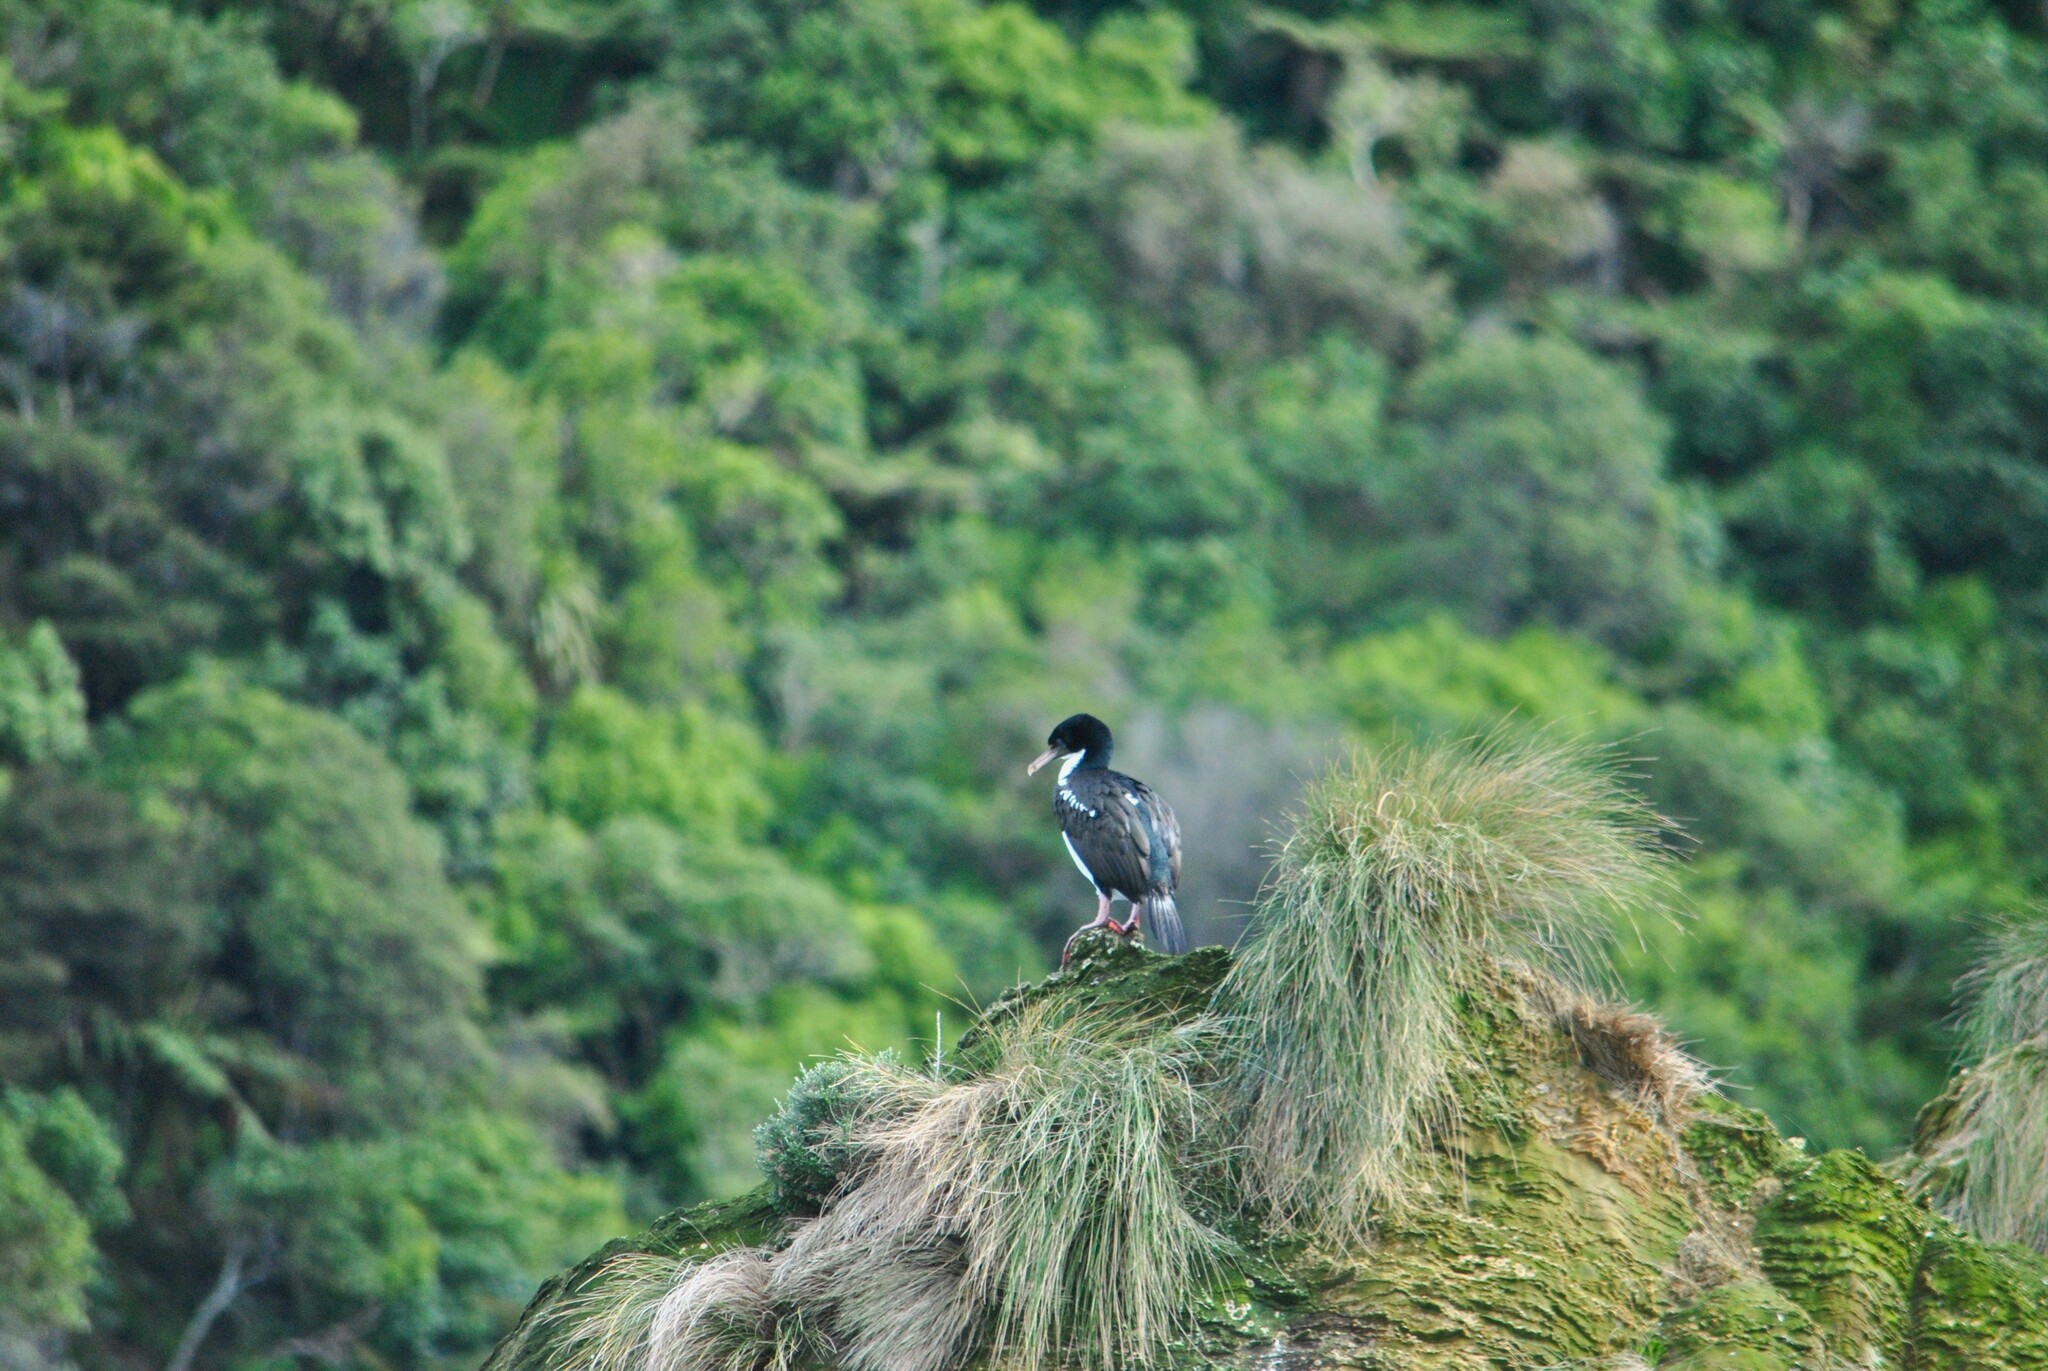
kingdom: Animalia
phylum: Chordata
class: Aves
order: Suliformes
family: Phalacrocoracidae
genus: Leucocarbo
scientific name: Leucocarbo carunculatus
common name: Rough-faced shag
